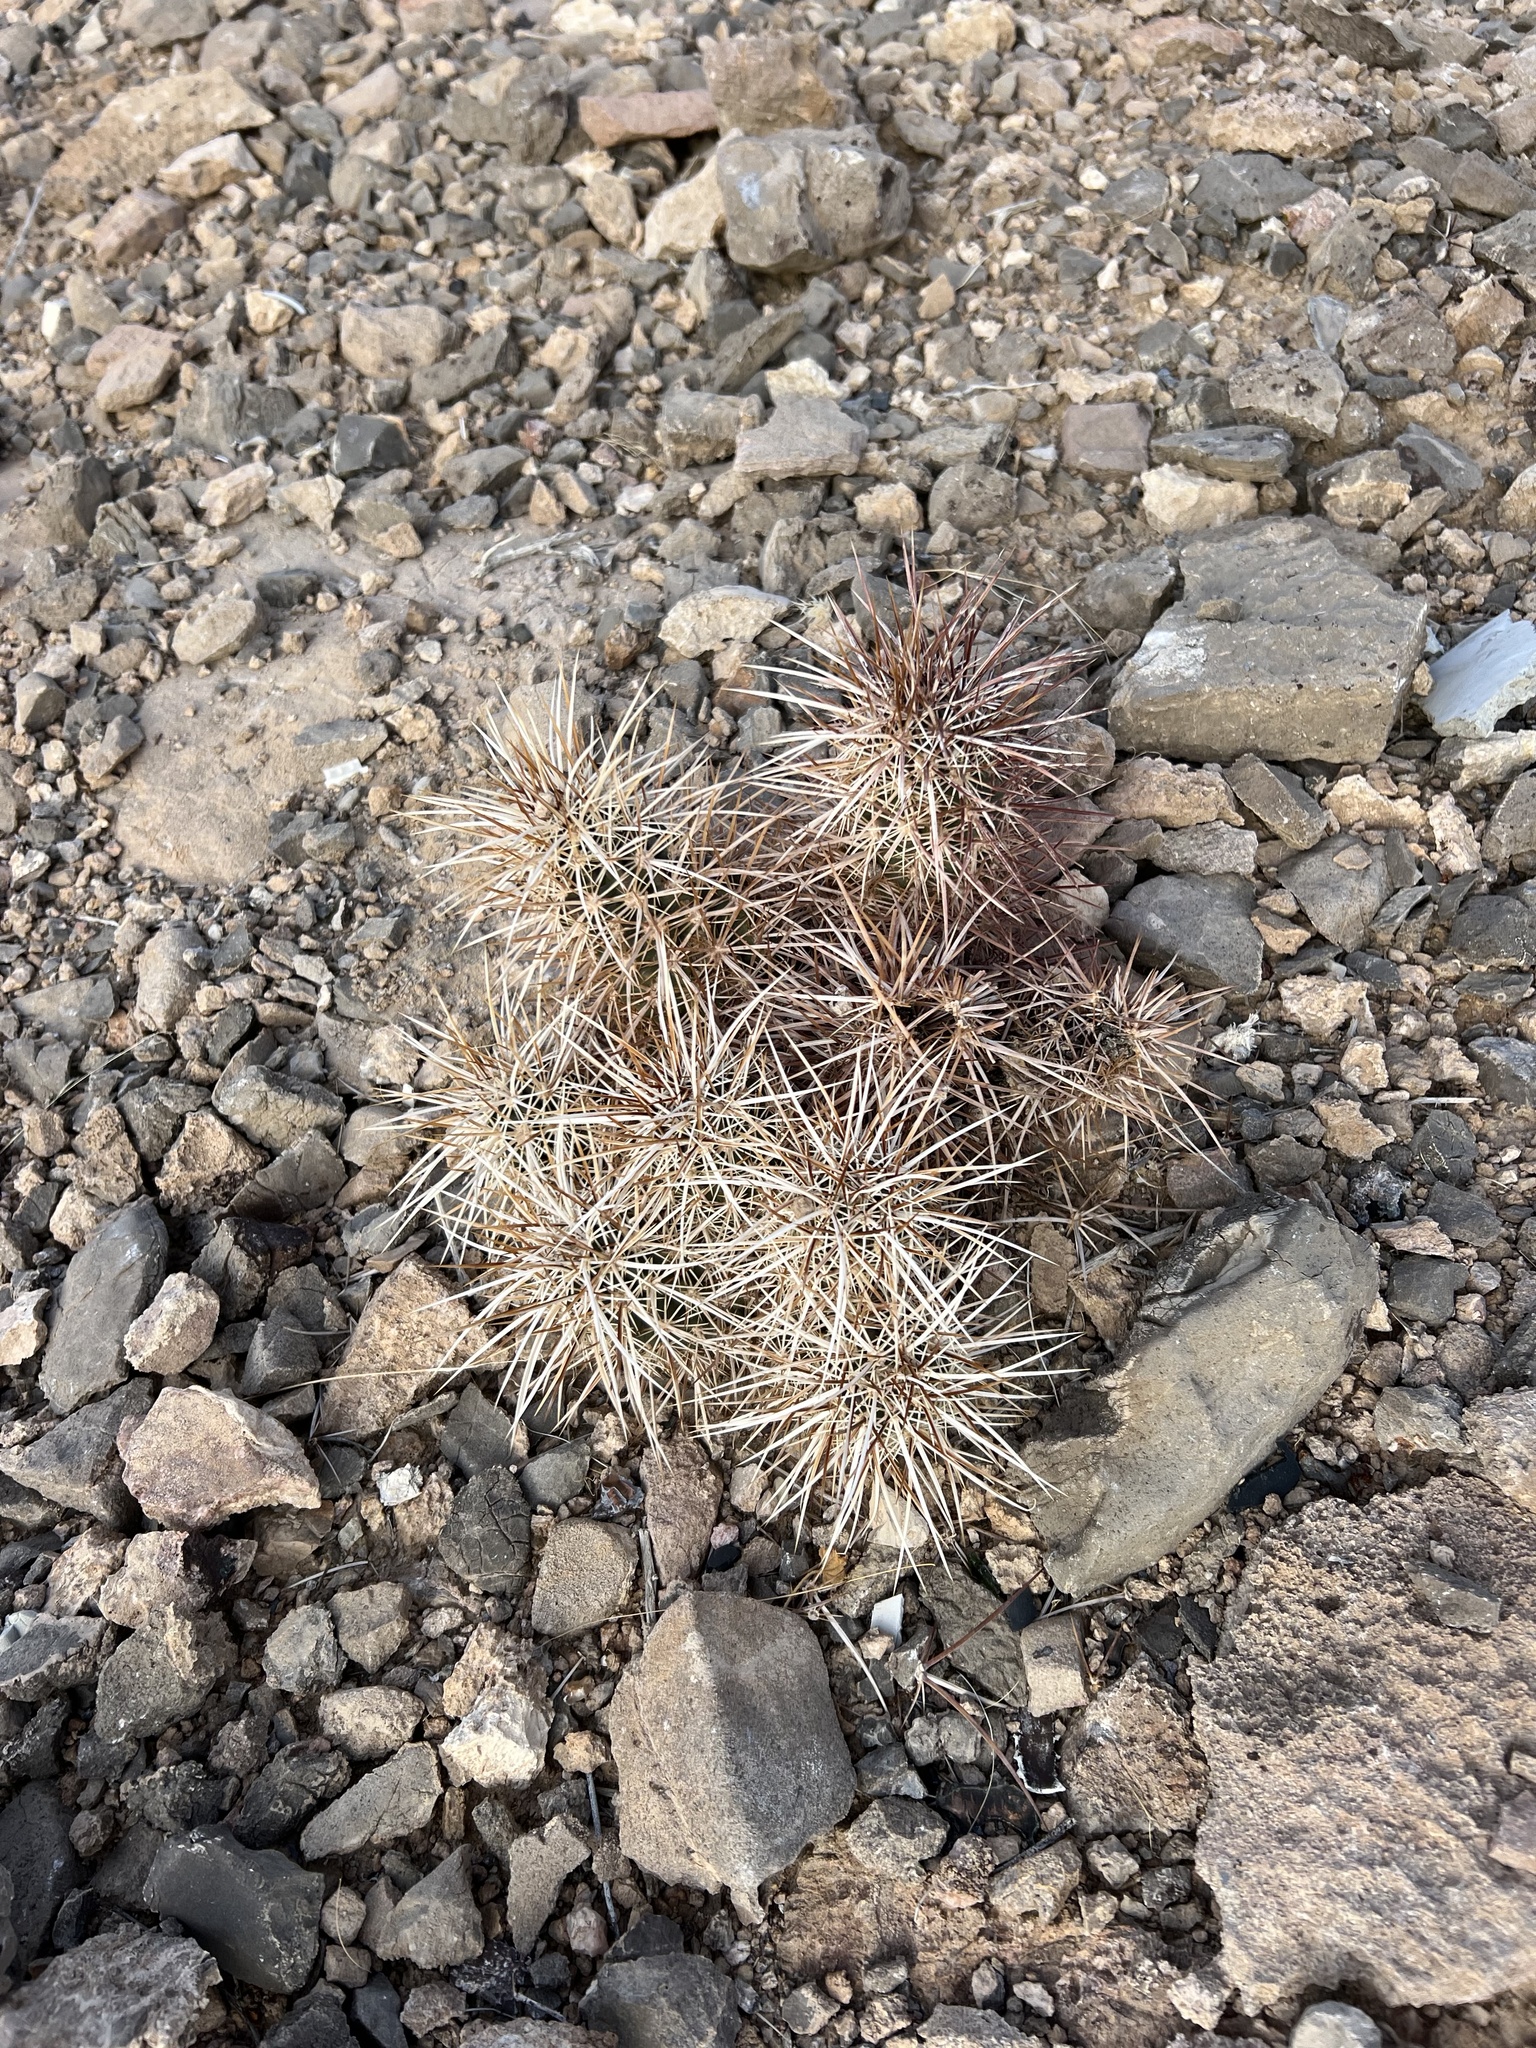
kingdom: Plantae
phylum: Tracheophyta
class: Magnoliopsida
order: Caryophyllales
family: Cactaceae
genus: Echinocereus
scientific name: Echinocereus engelmannii
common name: Engelmann's hedgehog cactus
